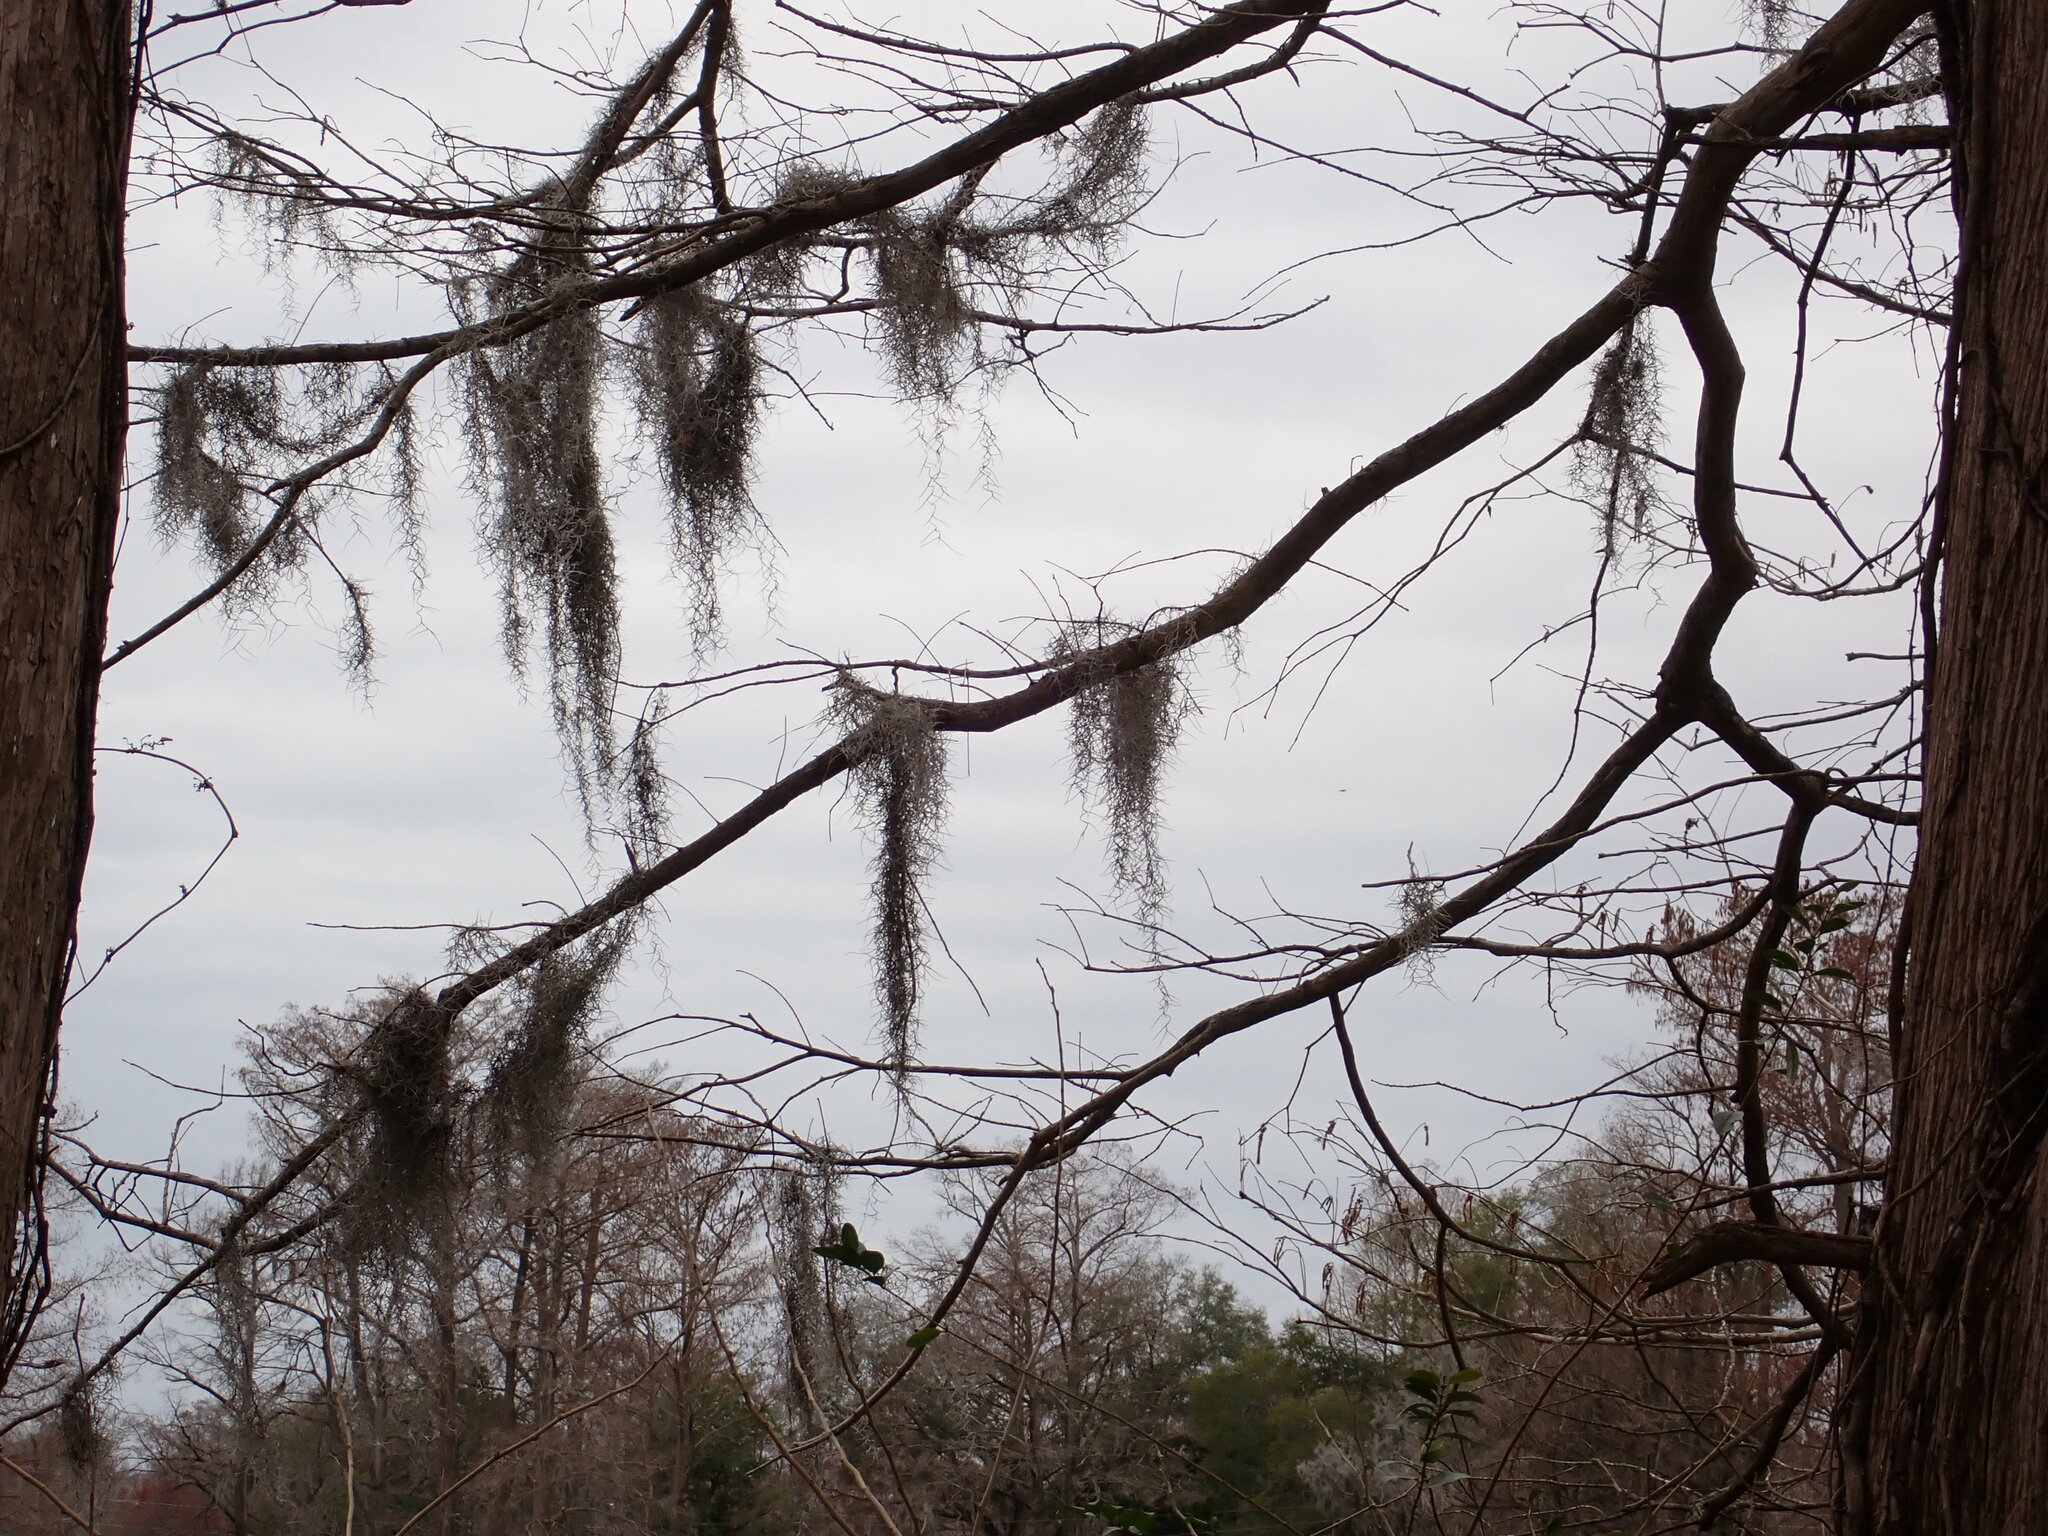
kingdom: Plantae
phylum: Tracheophyta
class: Liliopsida
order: Poales
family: Bromeliaceae
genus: Tillandsia
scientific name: Tillandsia usneoides
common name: Spanish moss
